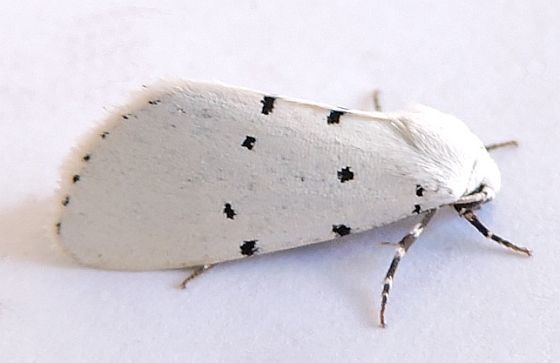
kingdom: Animalia
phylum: Arthropoda
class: Insecta
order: Lepidoptera
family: Noctuidae
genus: Grotella
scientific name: Grotella sampita
